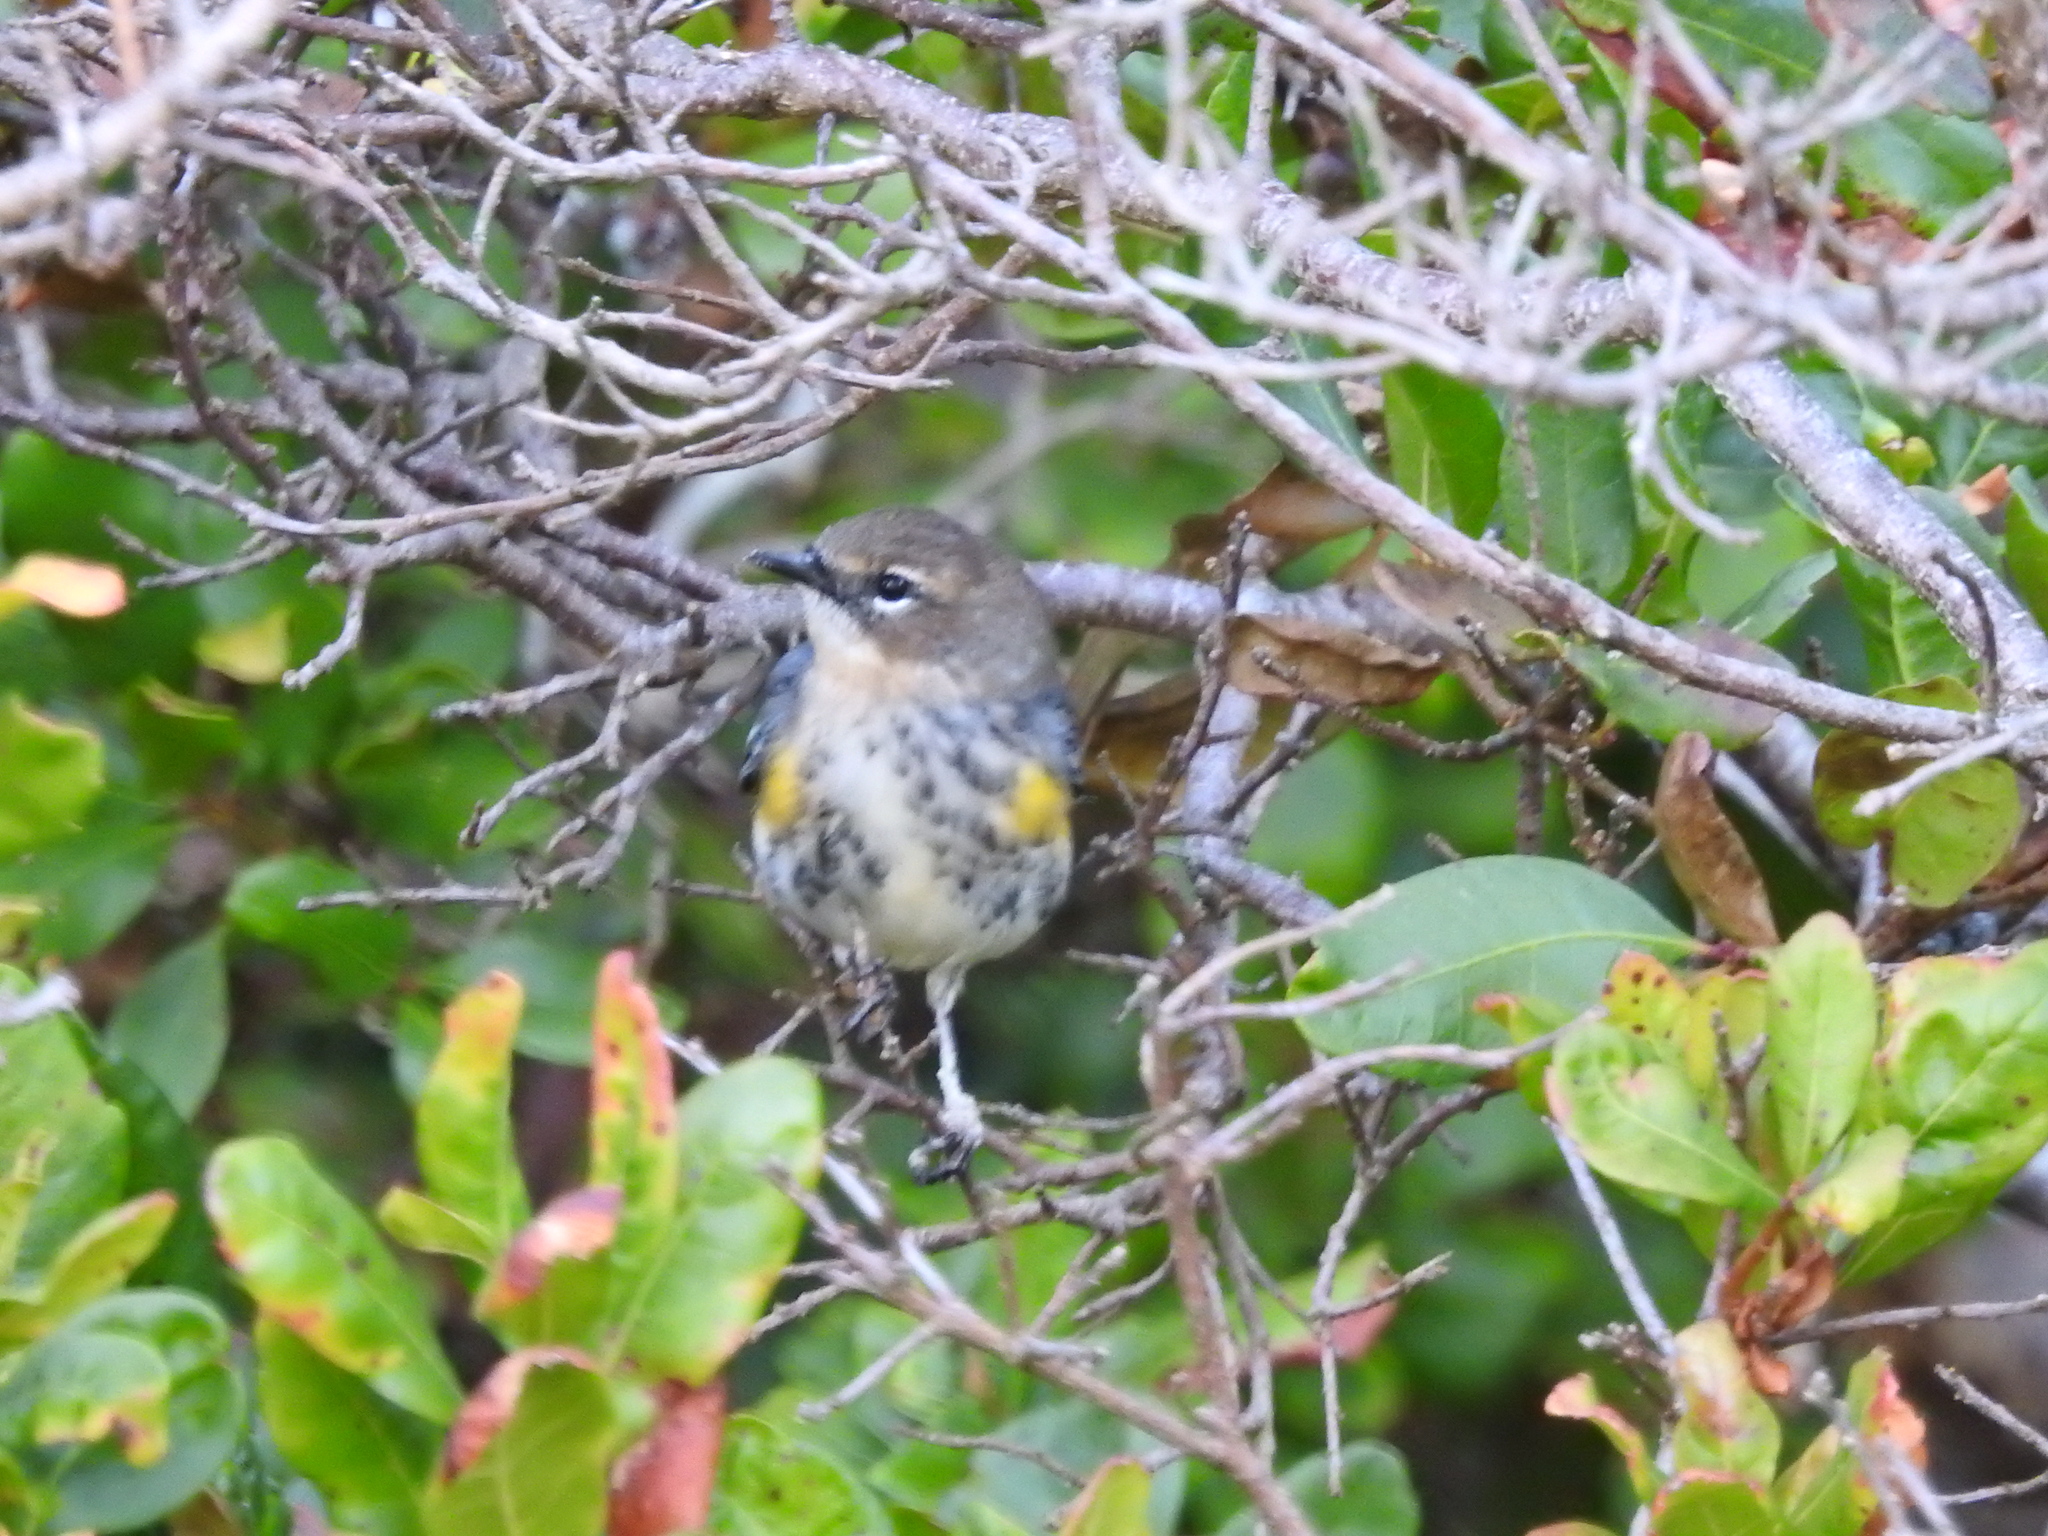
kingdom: Animalia
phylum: Chordata
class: Aves
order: Passeriformes
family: Parulidae
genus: Setophaga
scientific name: Setophaga coronata
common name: Myrtle warbler
